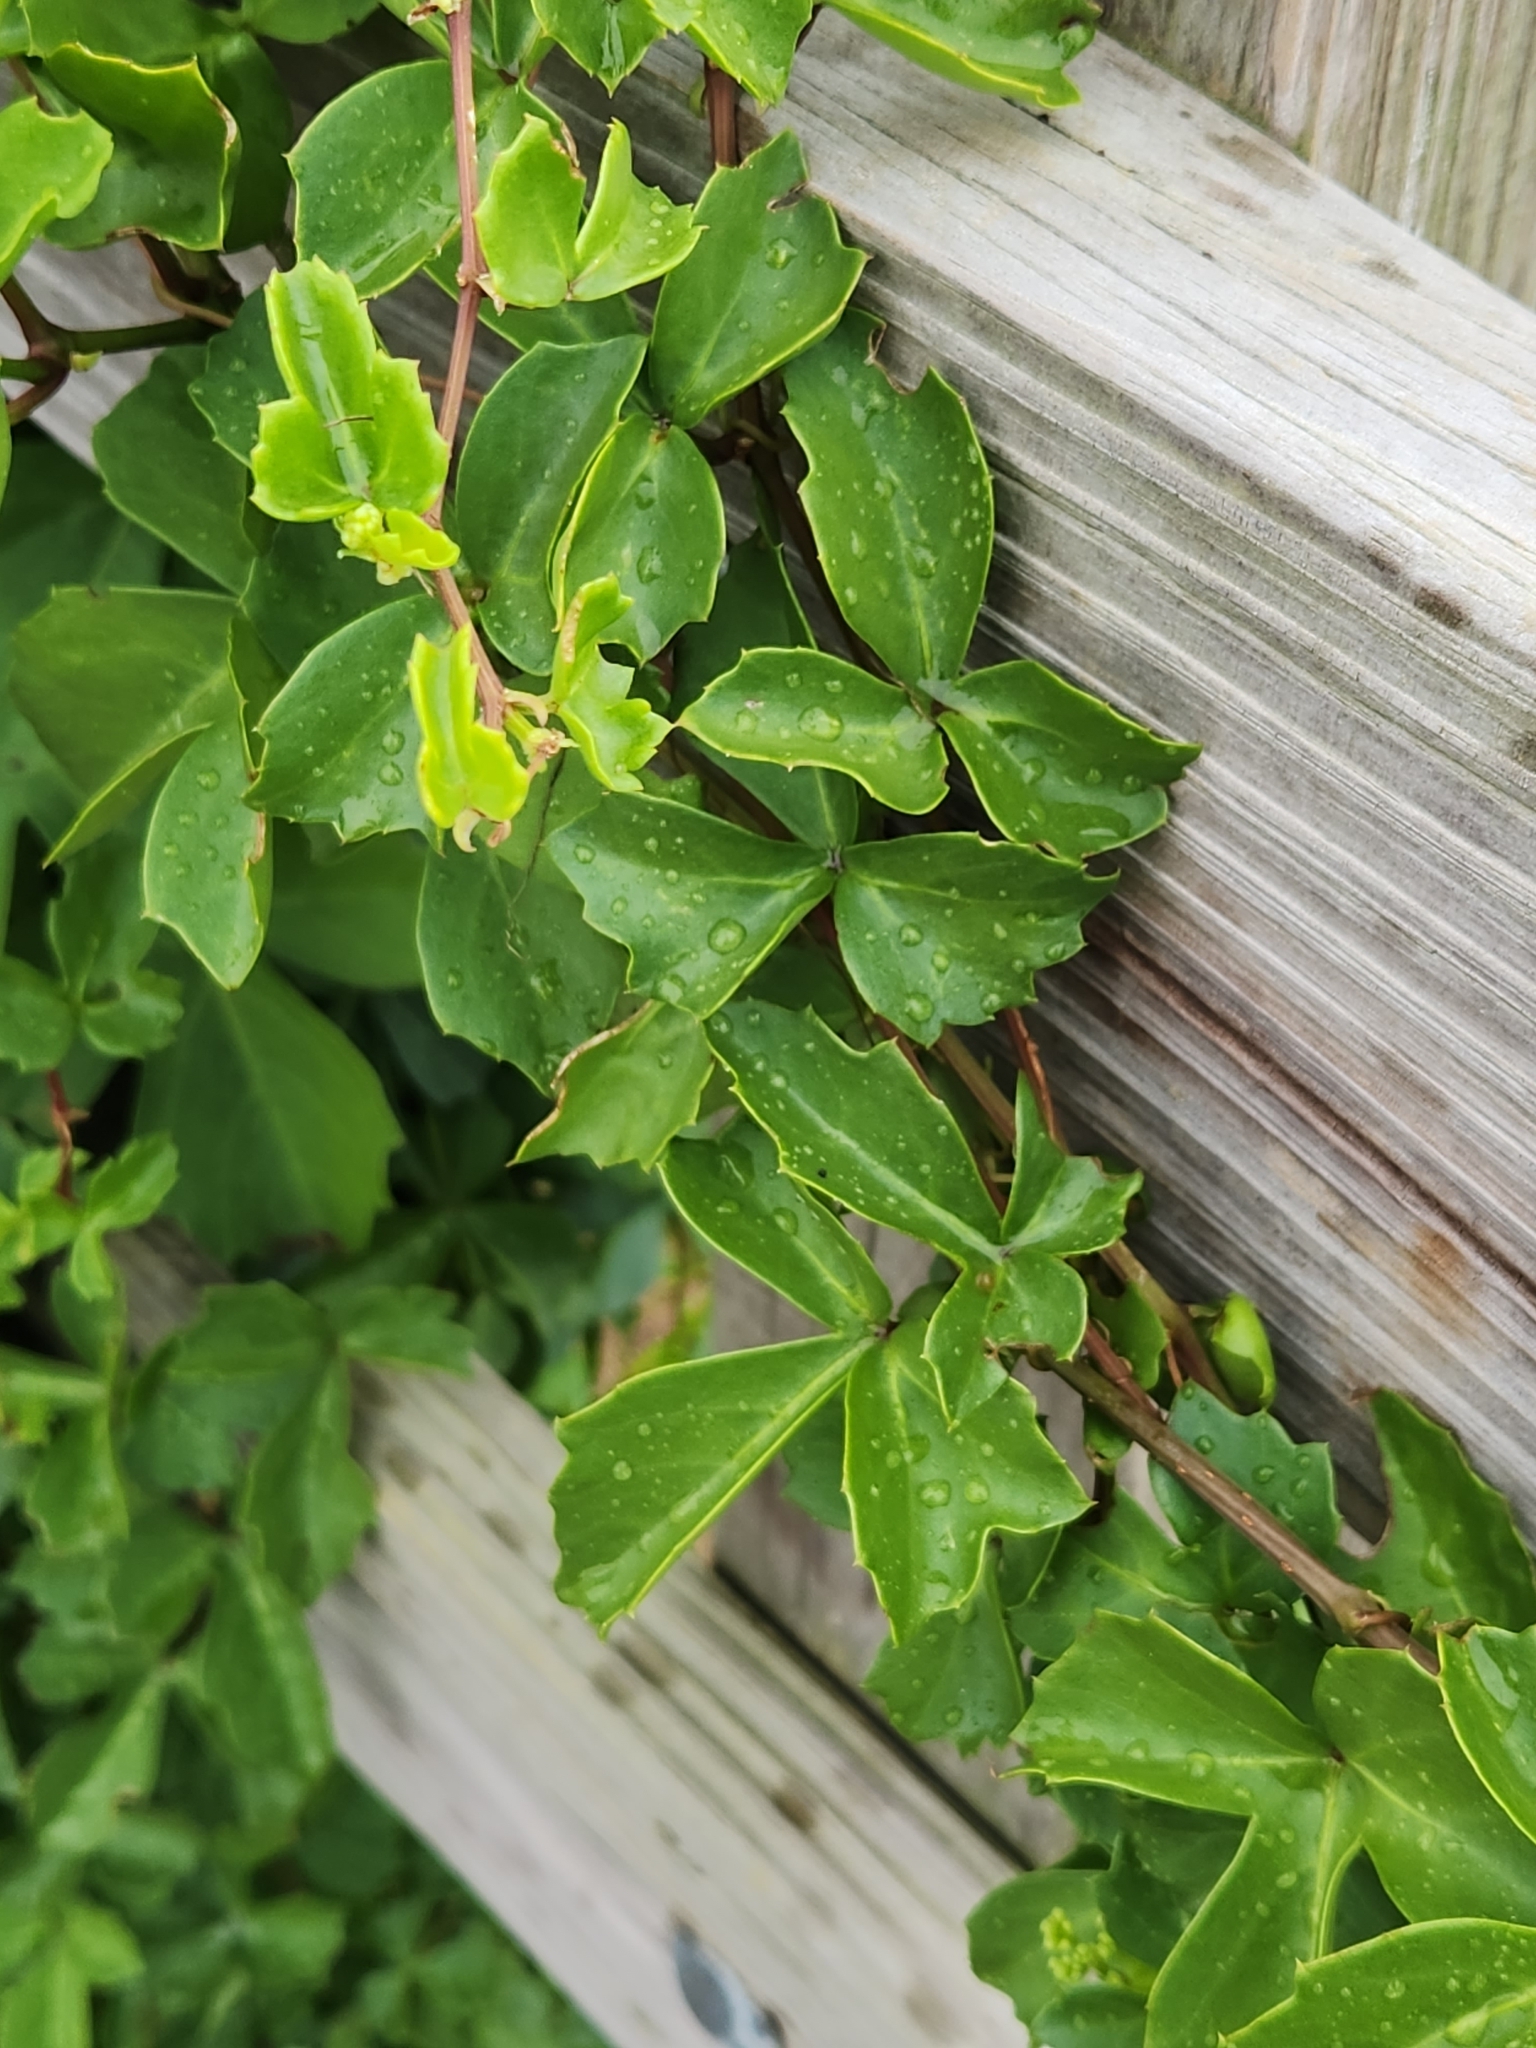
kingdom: Plantae
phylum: Tracheophyta
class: Magnoliopsida
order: Vitales
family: Vitaceae
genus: Cissus
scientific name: Cissus trifoliata
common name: Vine-sorrel
